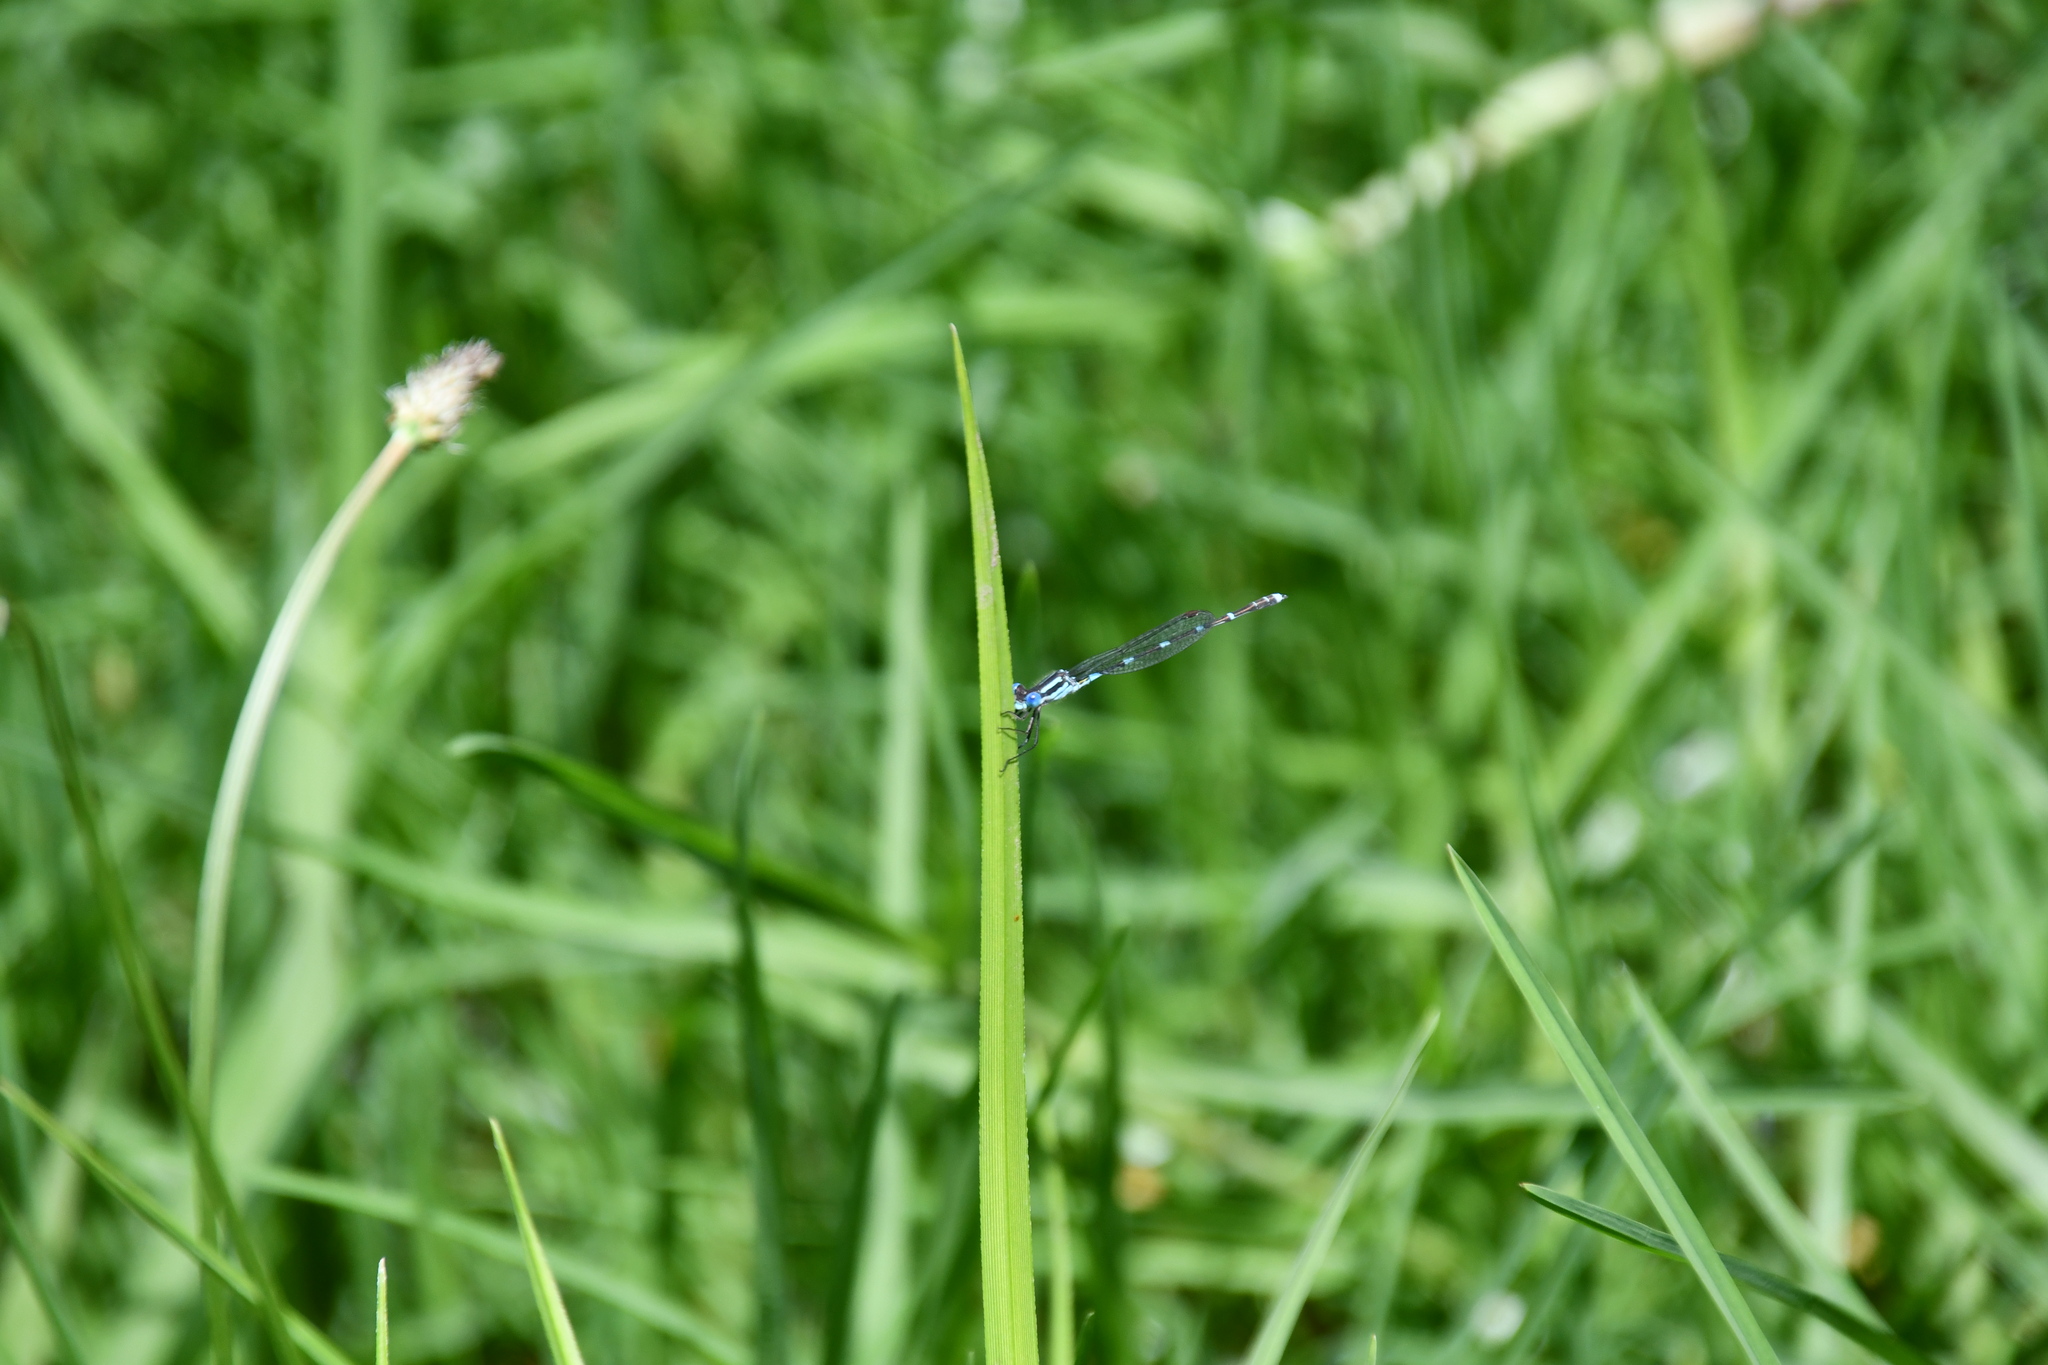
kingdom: Animalia
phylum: Arthropoda
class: Insecta
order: Odonata
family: Lestidae
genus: Austrolestes
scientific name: Austrolestes leda
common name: Wandering ringtail
